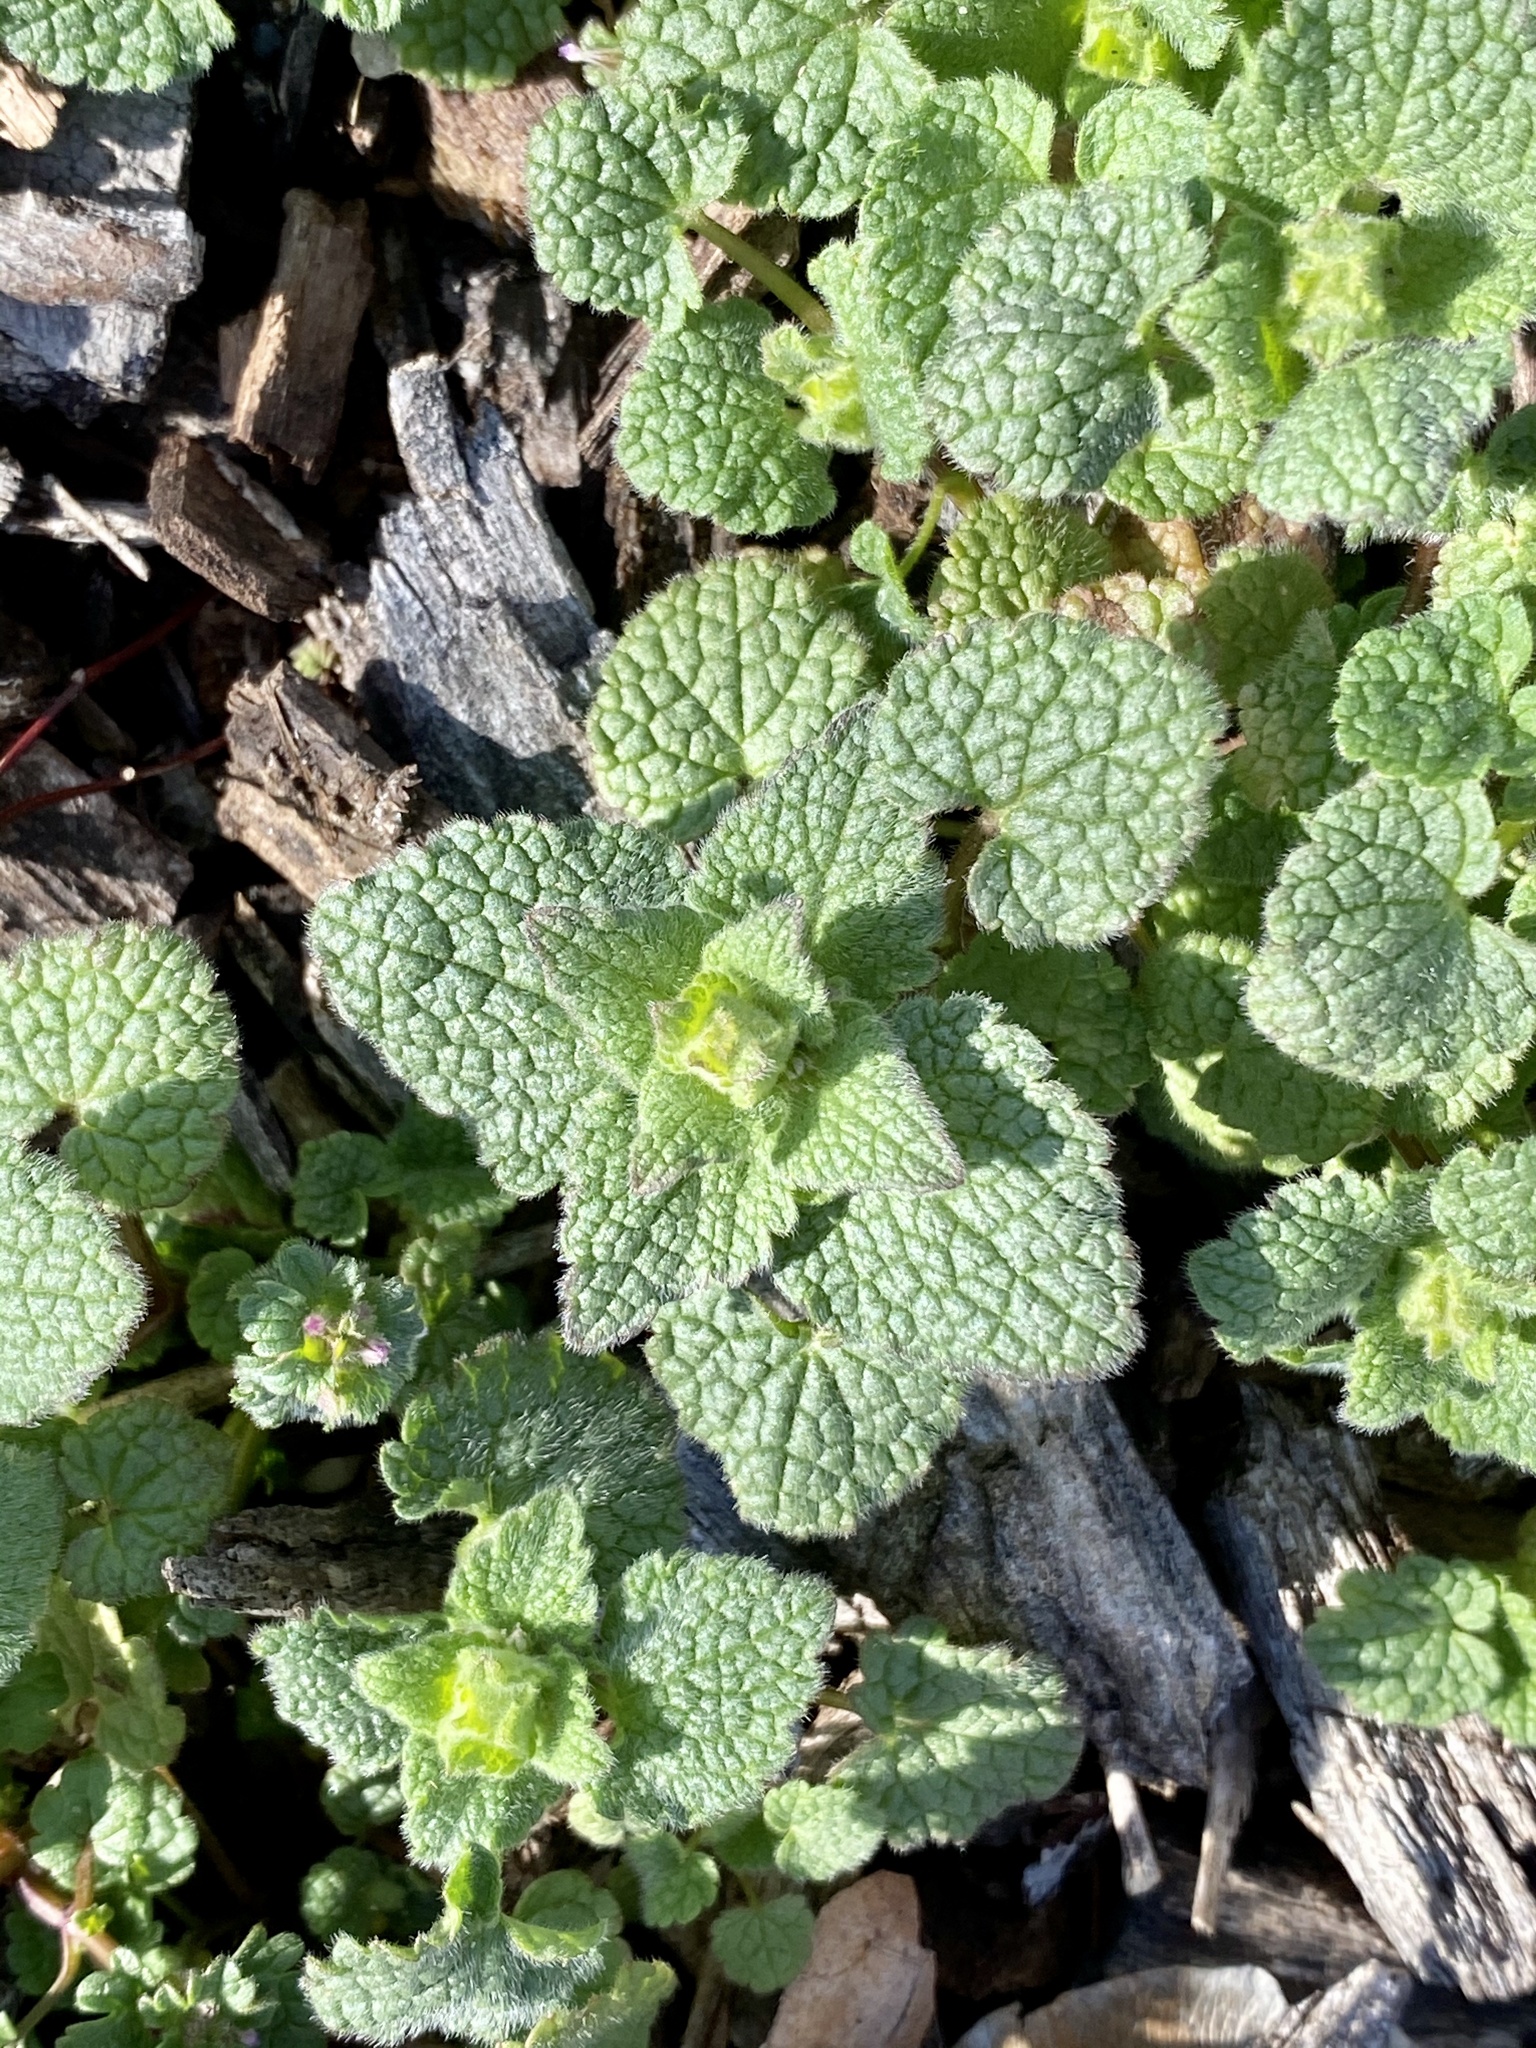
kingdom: Plantae
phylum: Tracheophyta
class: Magnoliopsida
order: Lamiales
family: Lamiaceae
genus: Lamium
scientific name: Lamium purpureum
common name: Red dead-nettle
